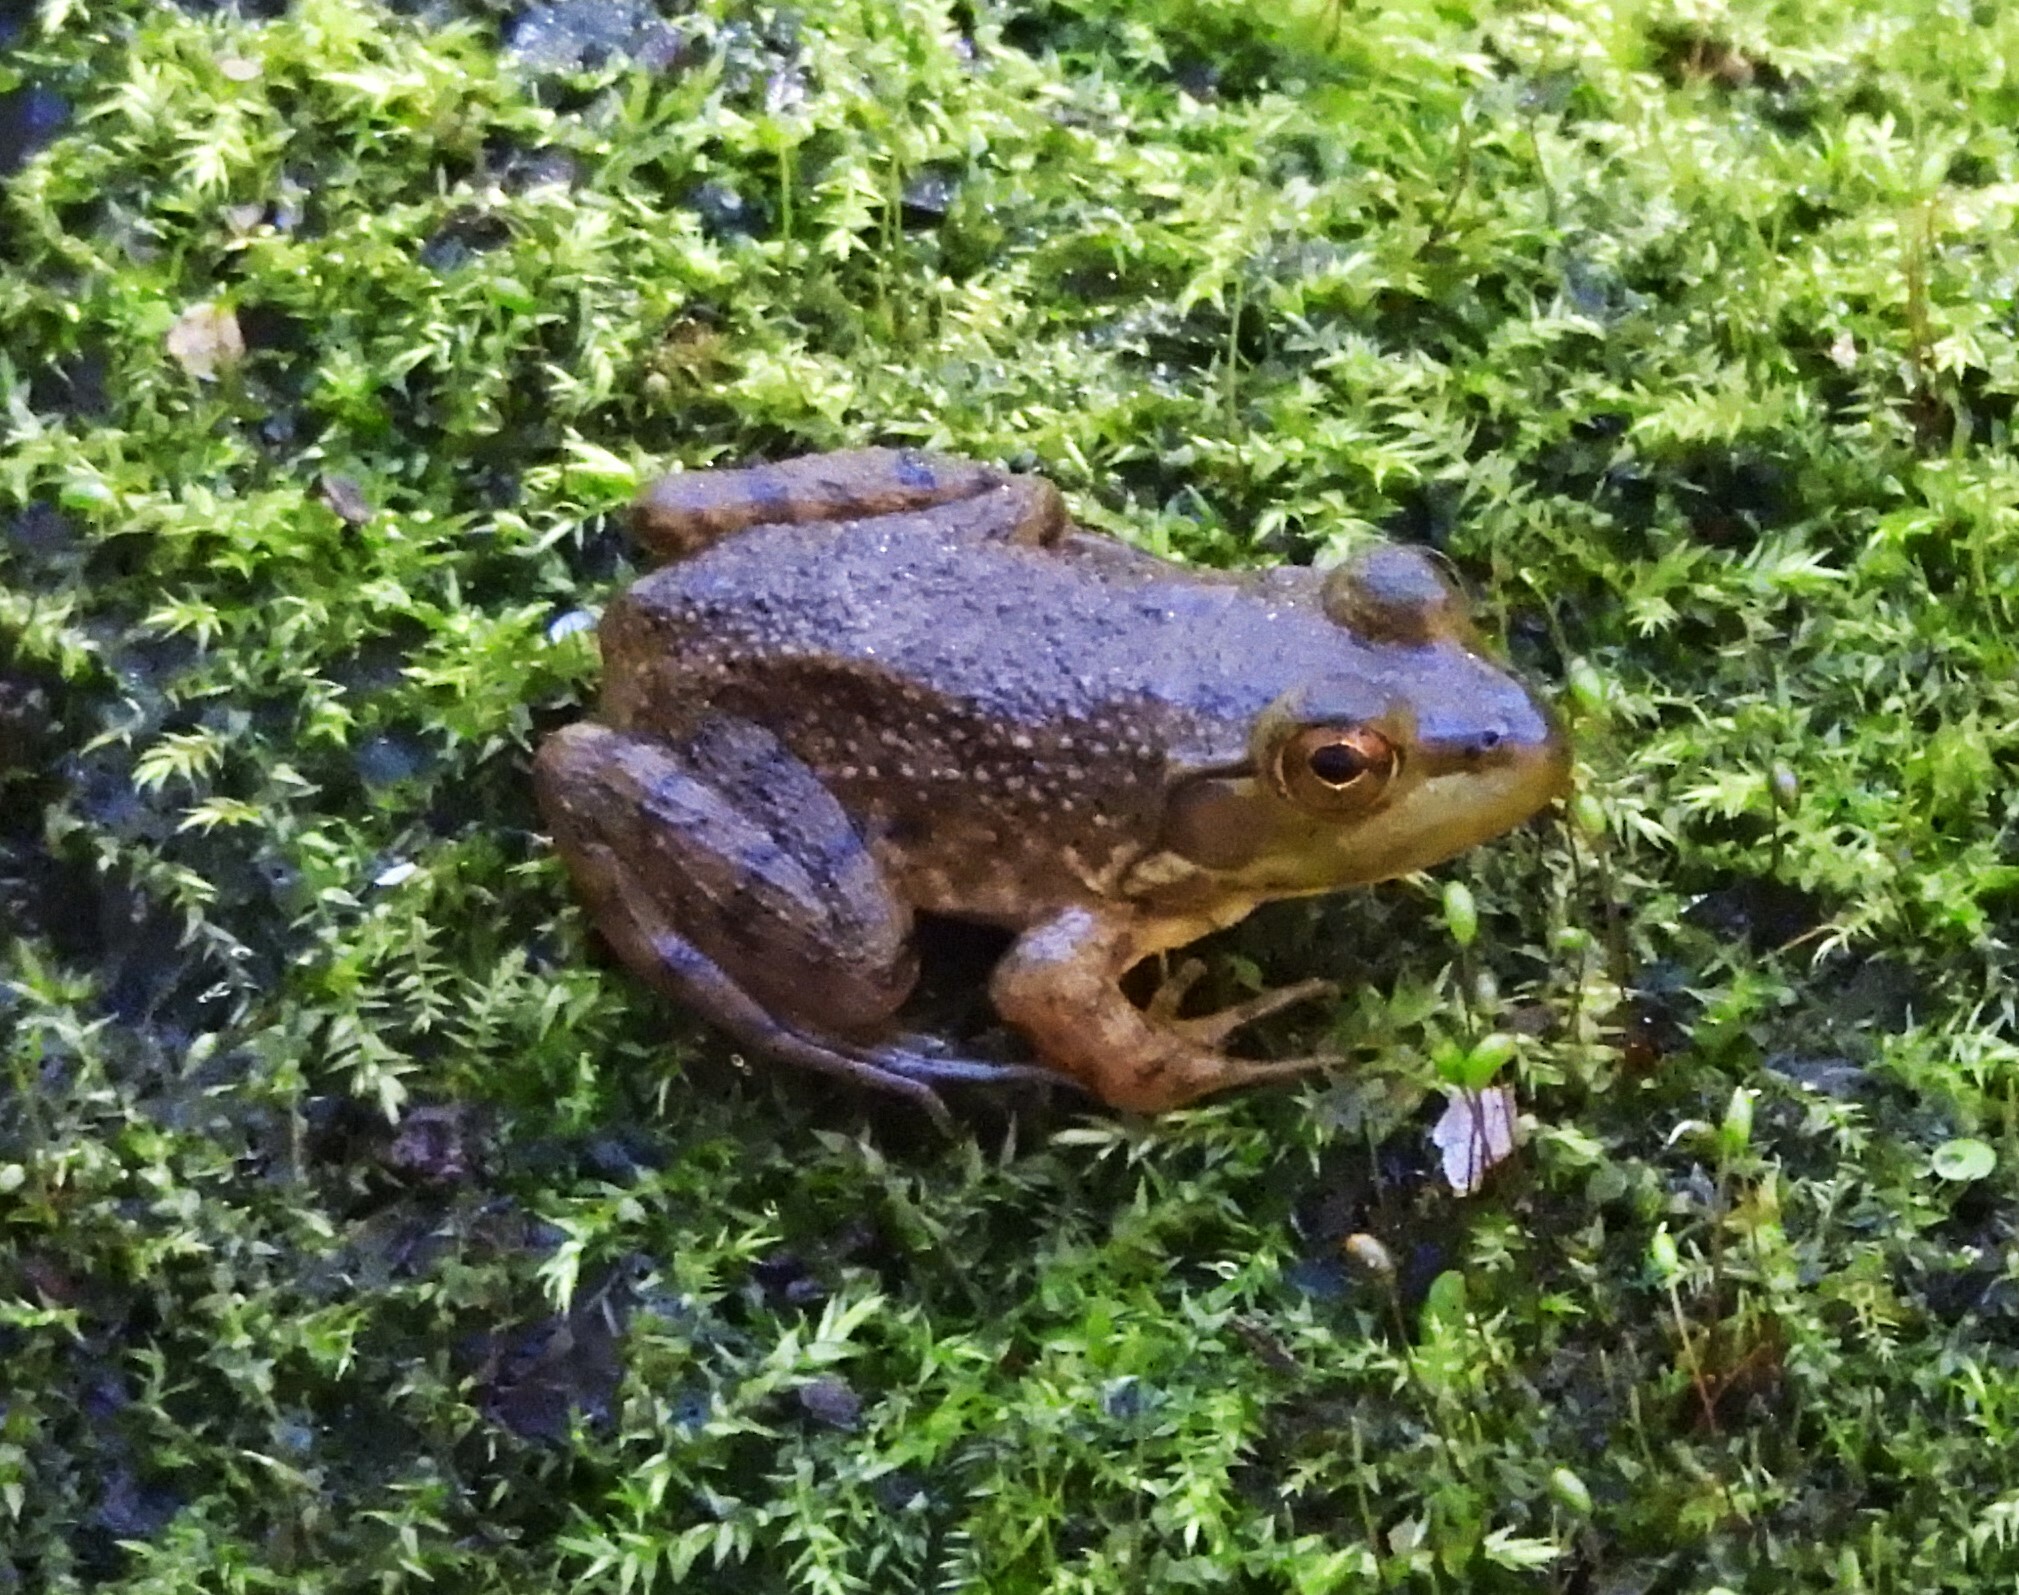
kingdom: Animalia
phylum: Chordata
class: Amphibia
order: Anura
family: Ranidae
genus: Lithobates
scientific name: Lithobates catesbeianus
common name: American bullfrog
